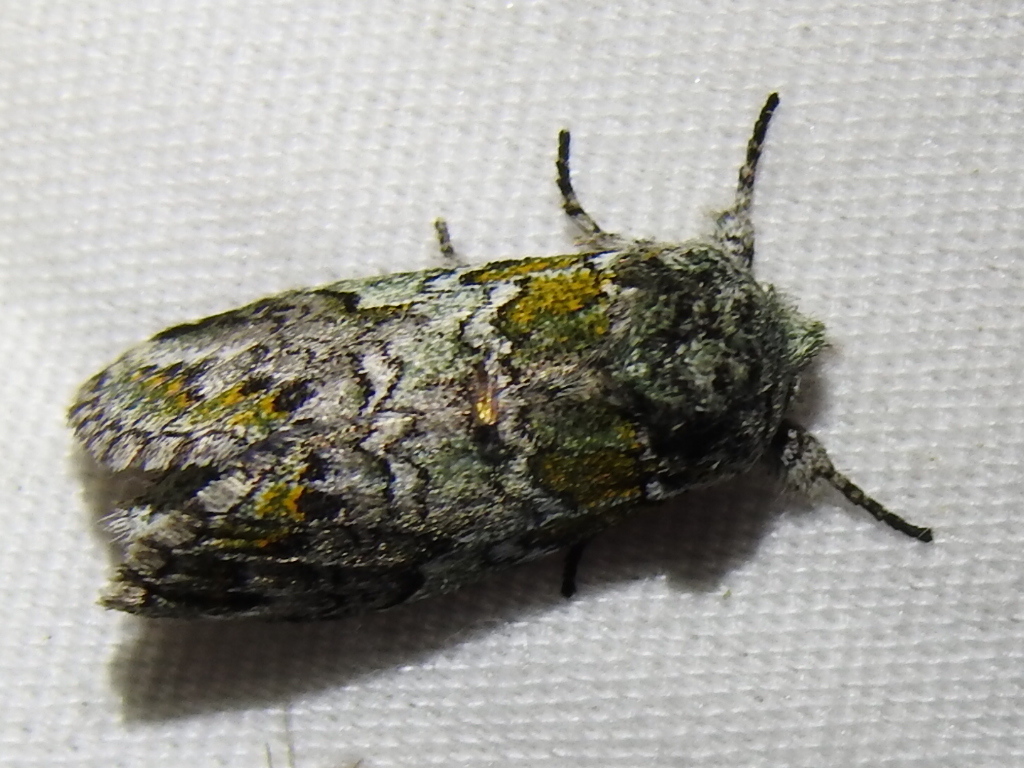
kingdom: Animalia
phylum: Arthropoda
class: Insecta
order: Lepidoptera
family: Notodontidae
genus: Litodonta
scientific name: Litodonta hydromeli
